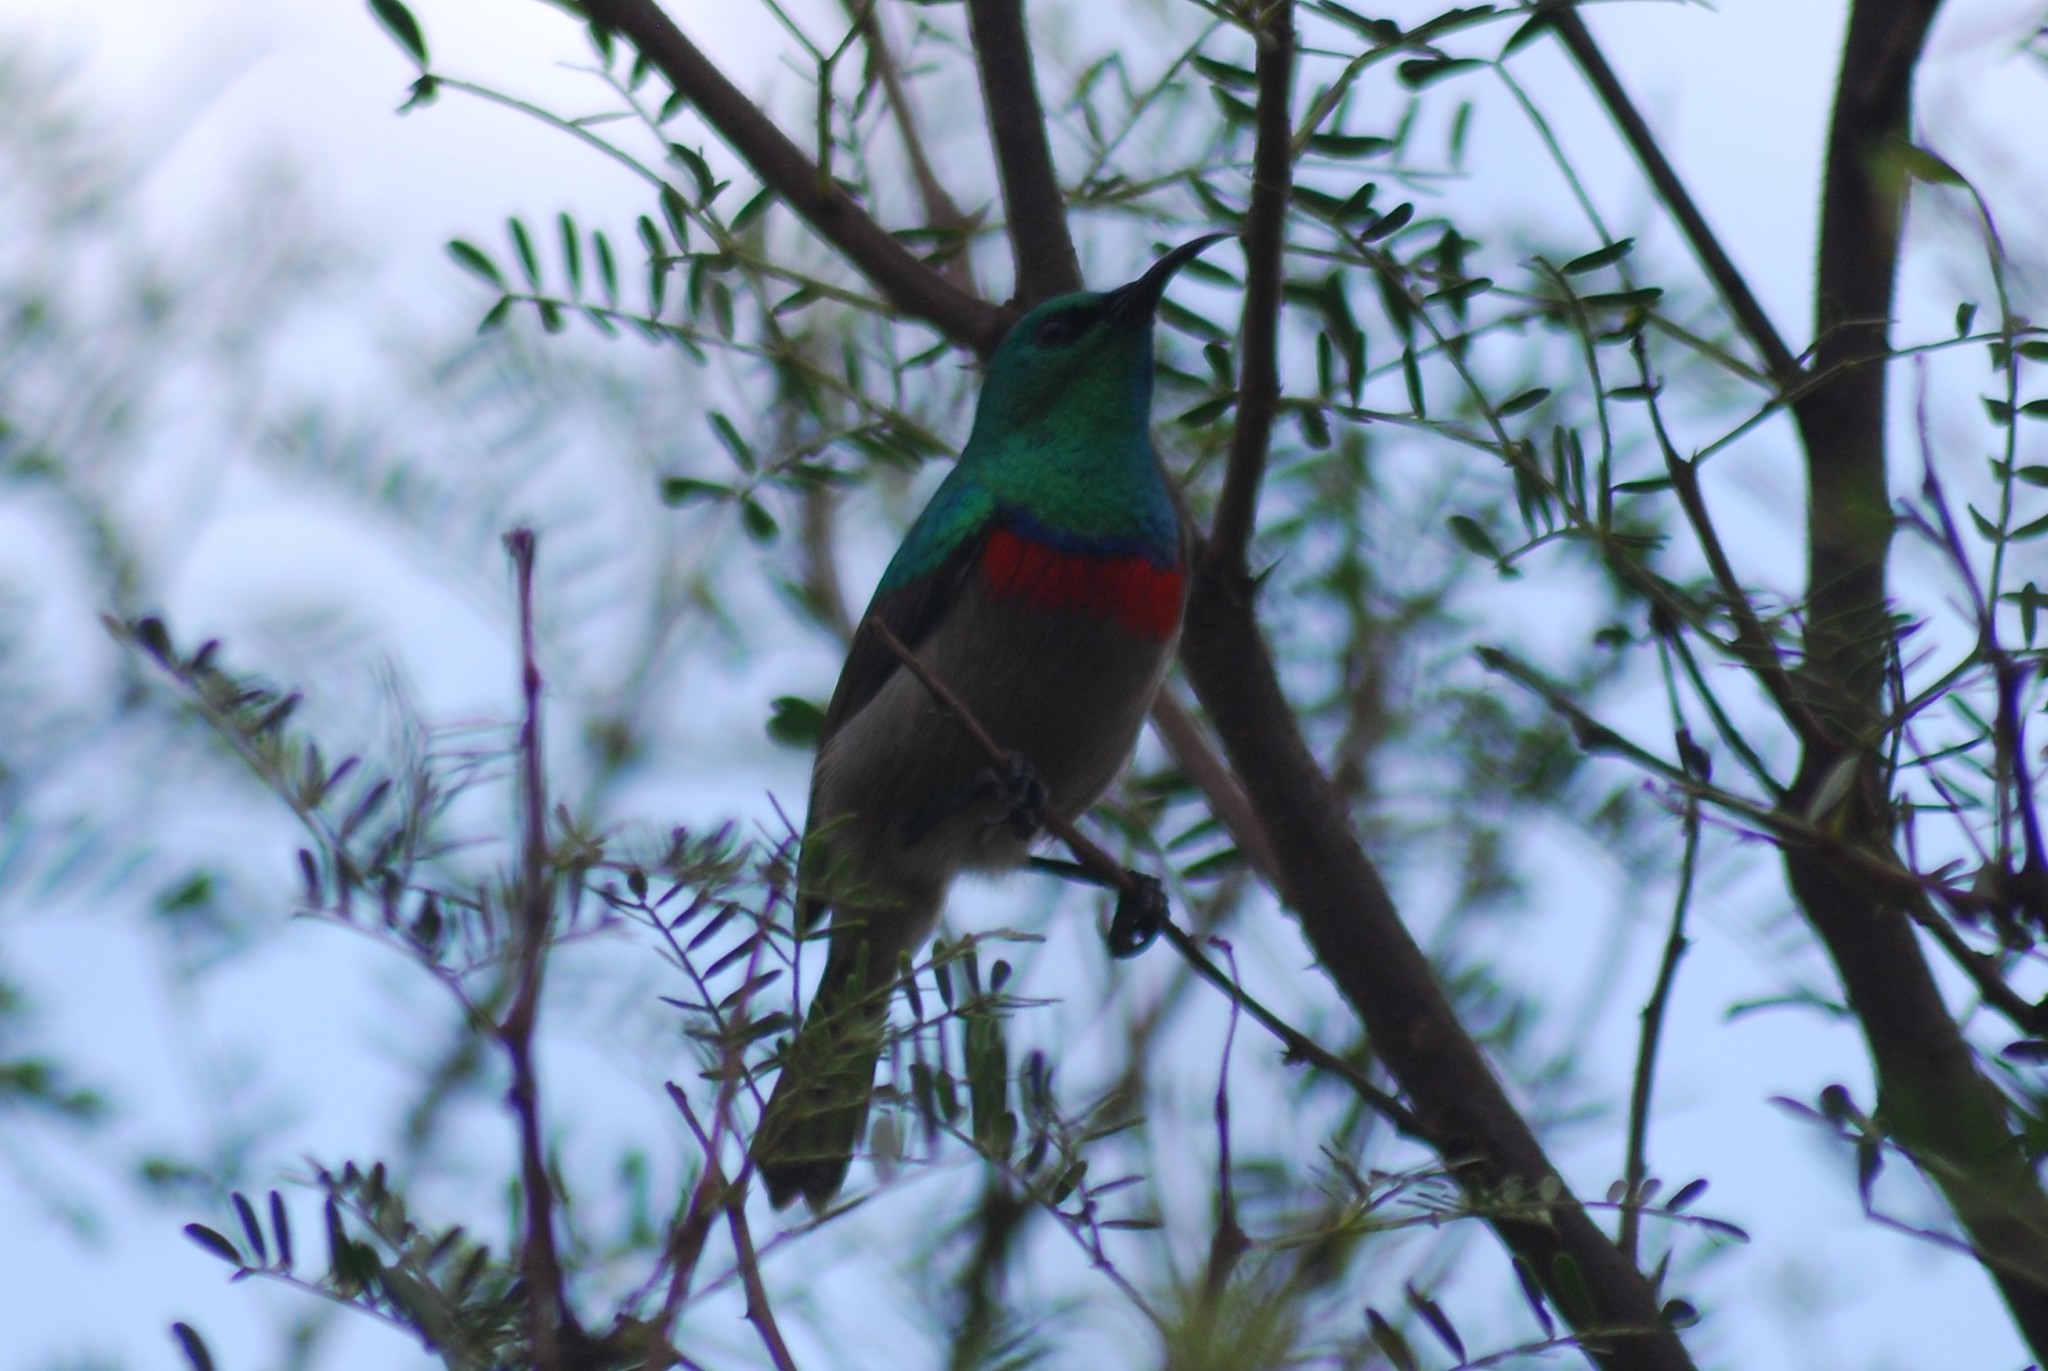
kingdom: Animalia
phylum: Chordata
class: Aves
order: Passeriformes
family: Nectariniidae
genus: Cinnyris
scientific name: Cinnyris chalybeus
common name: Southern double-collared sunbird
